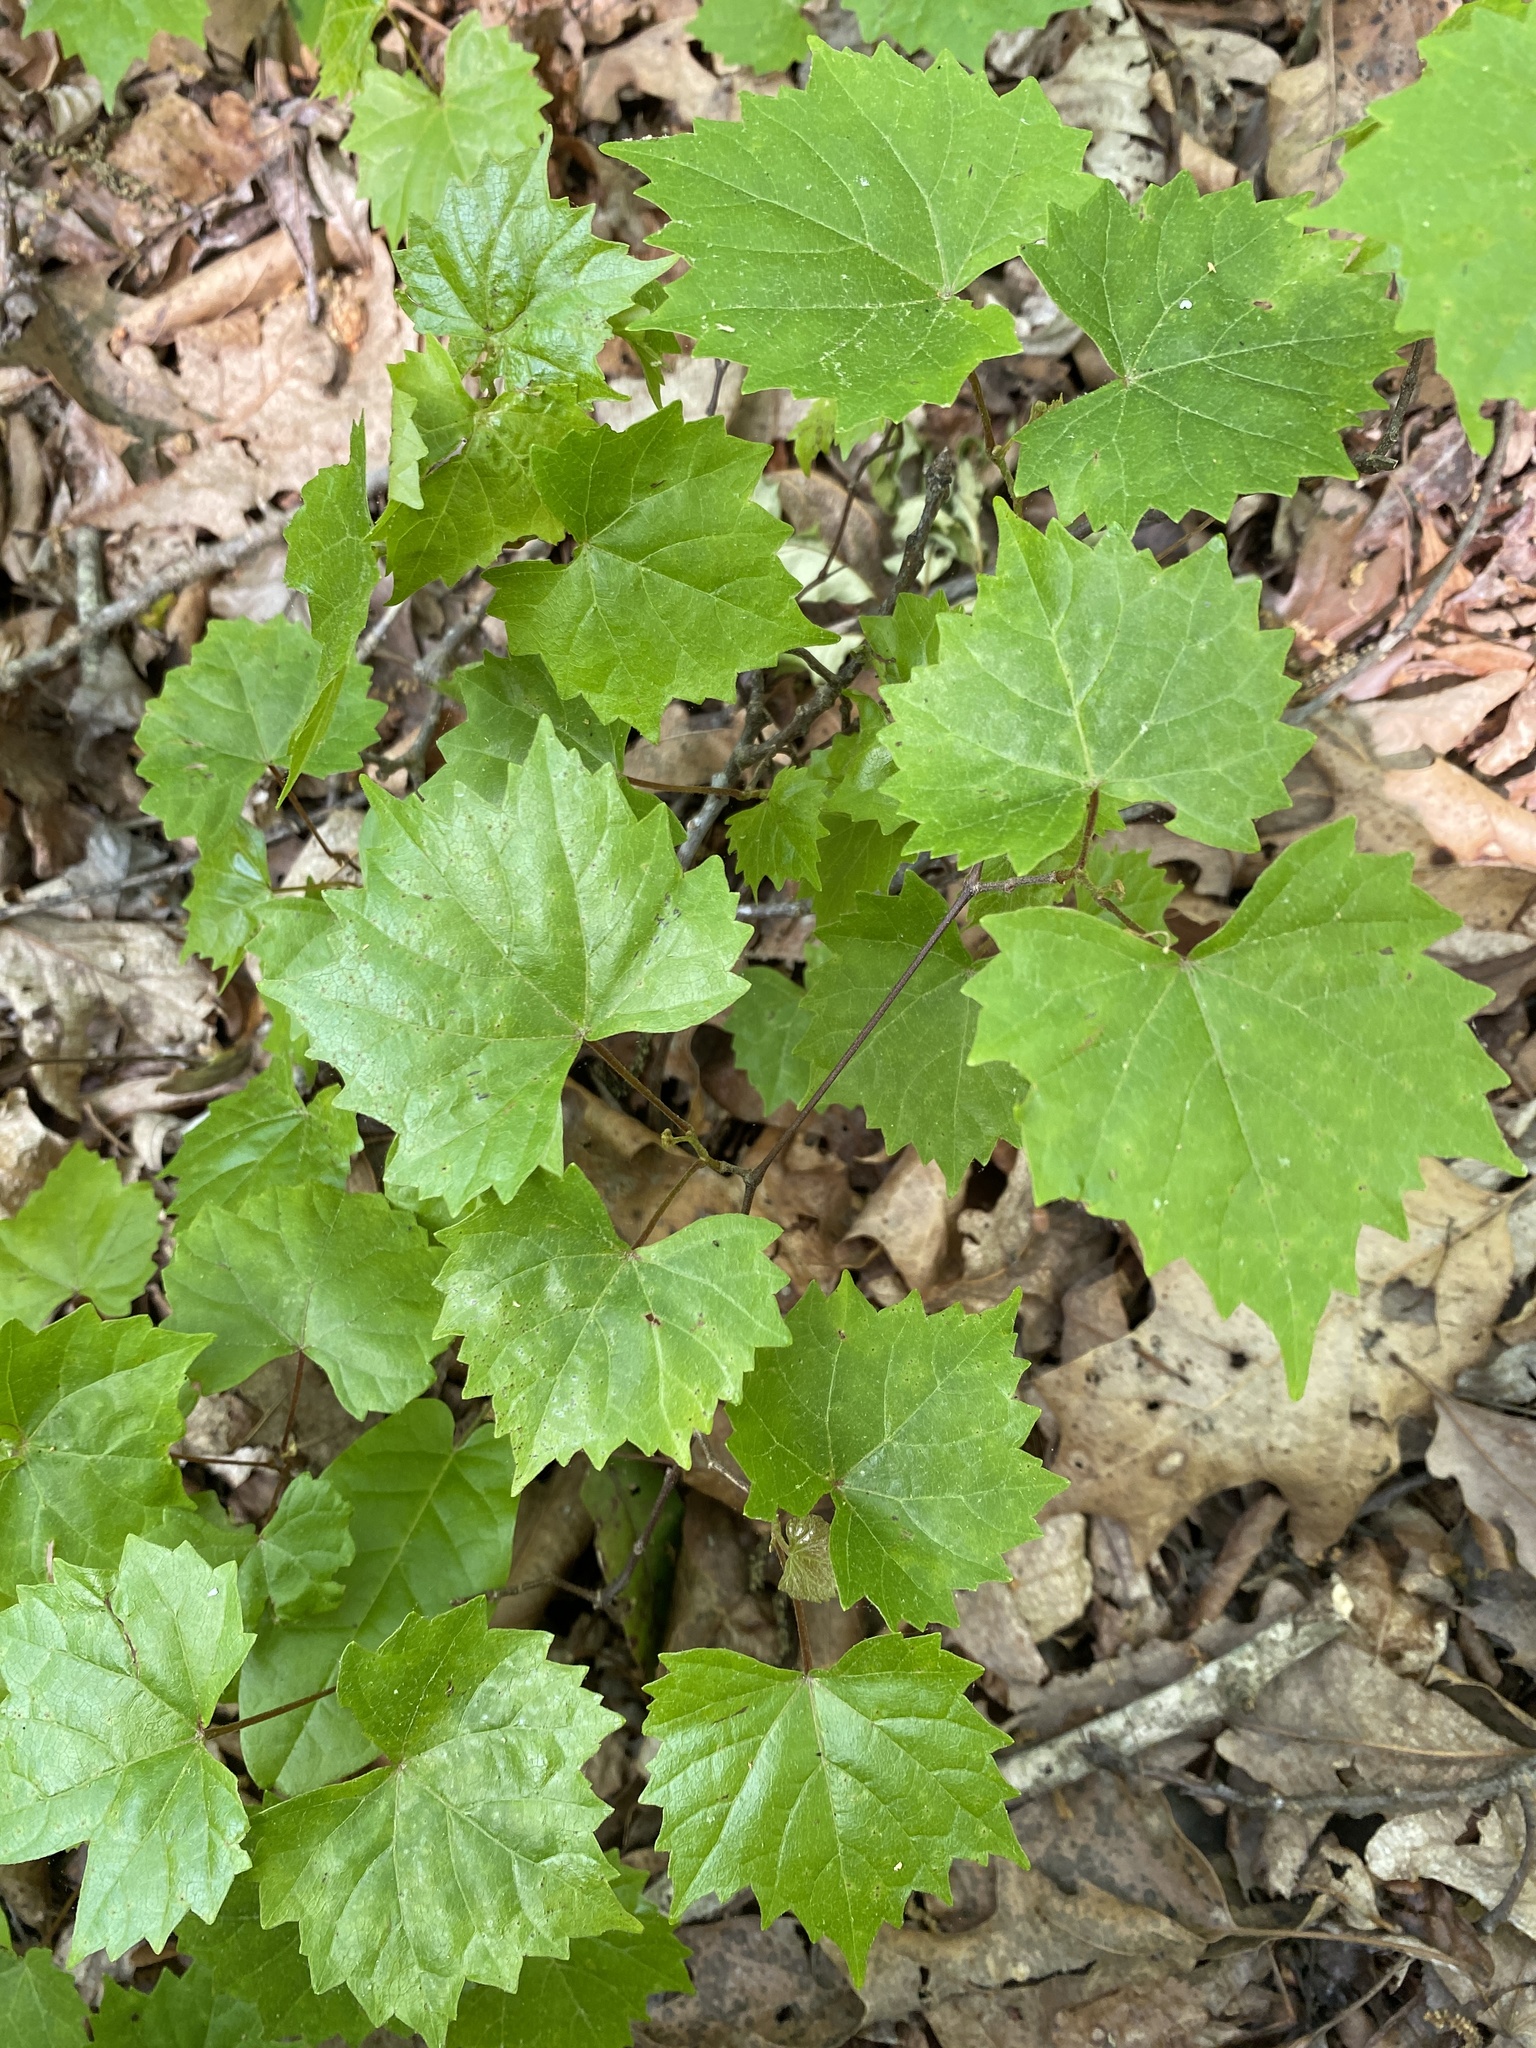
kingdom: Plantae
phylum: Tracheophyta
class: Magnoliopsida
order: Vitales
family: Vitaceae
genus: Vitis
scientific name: Vitis rotundifolia
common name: Muscadine grape
